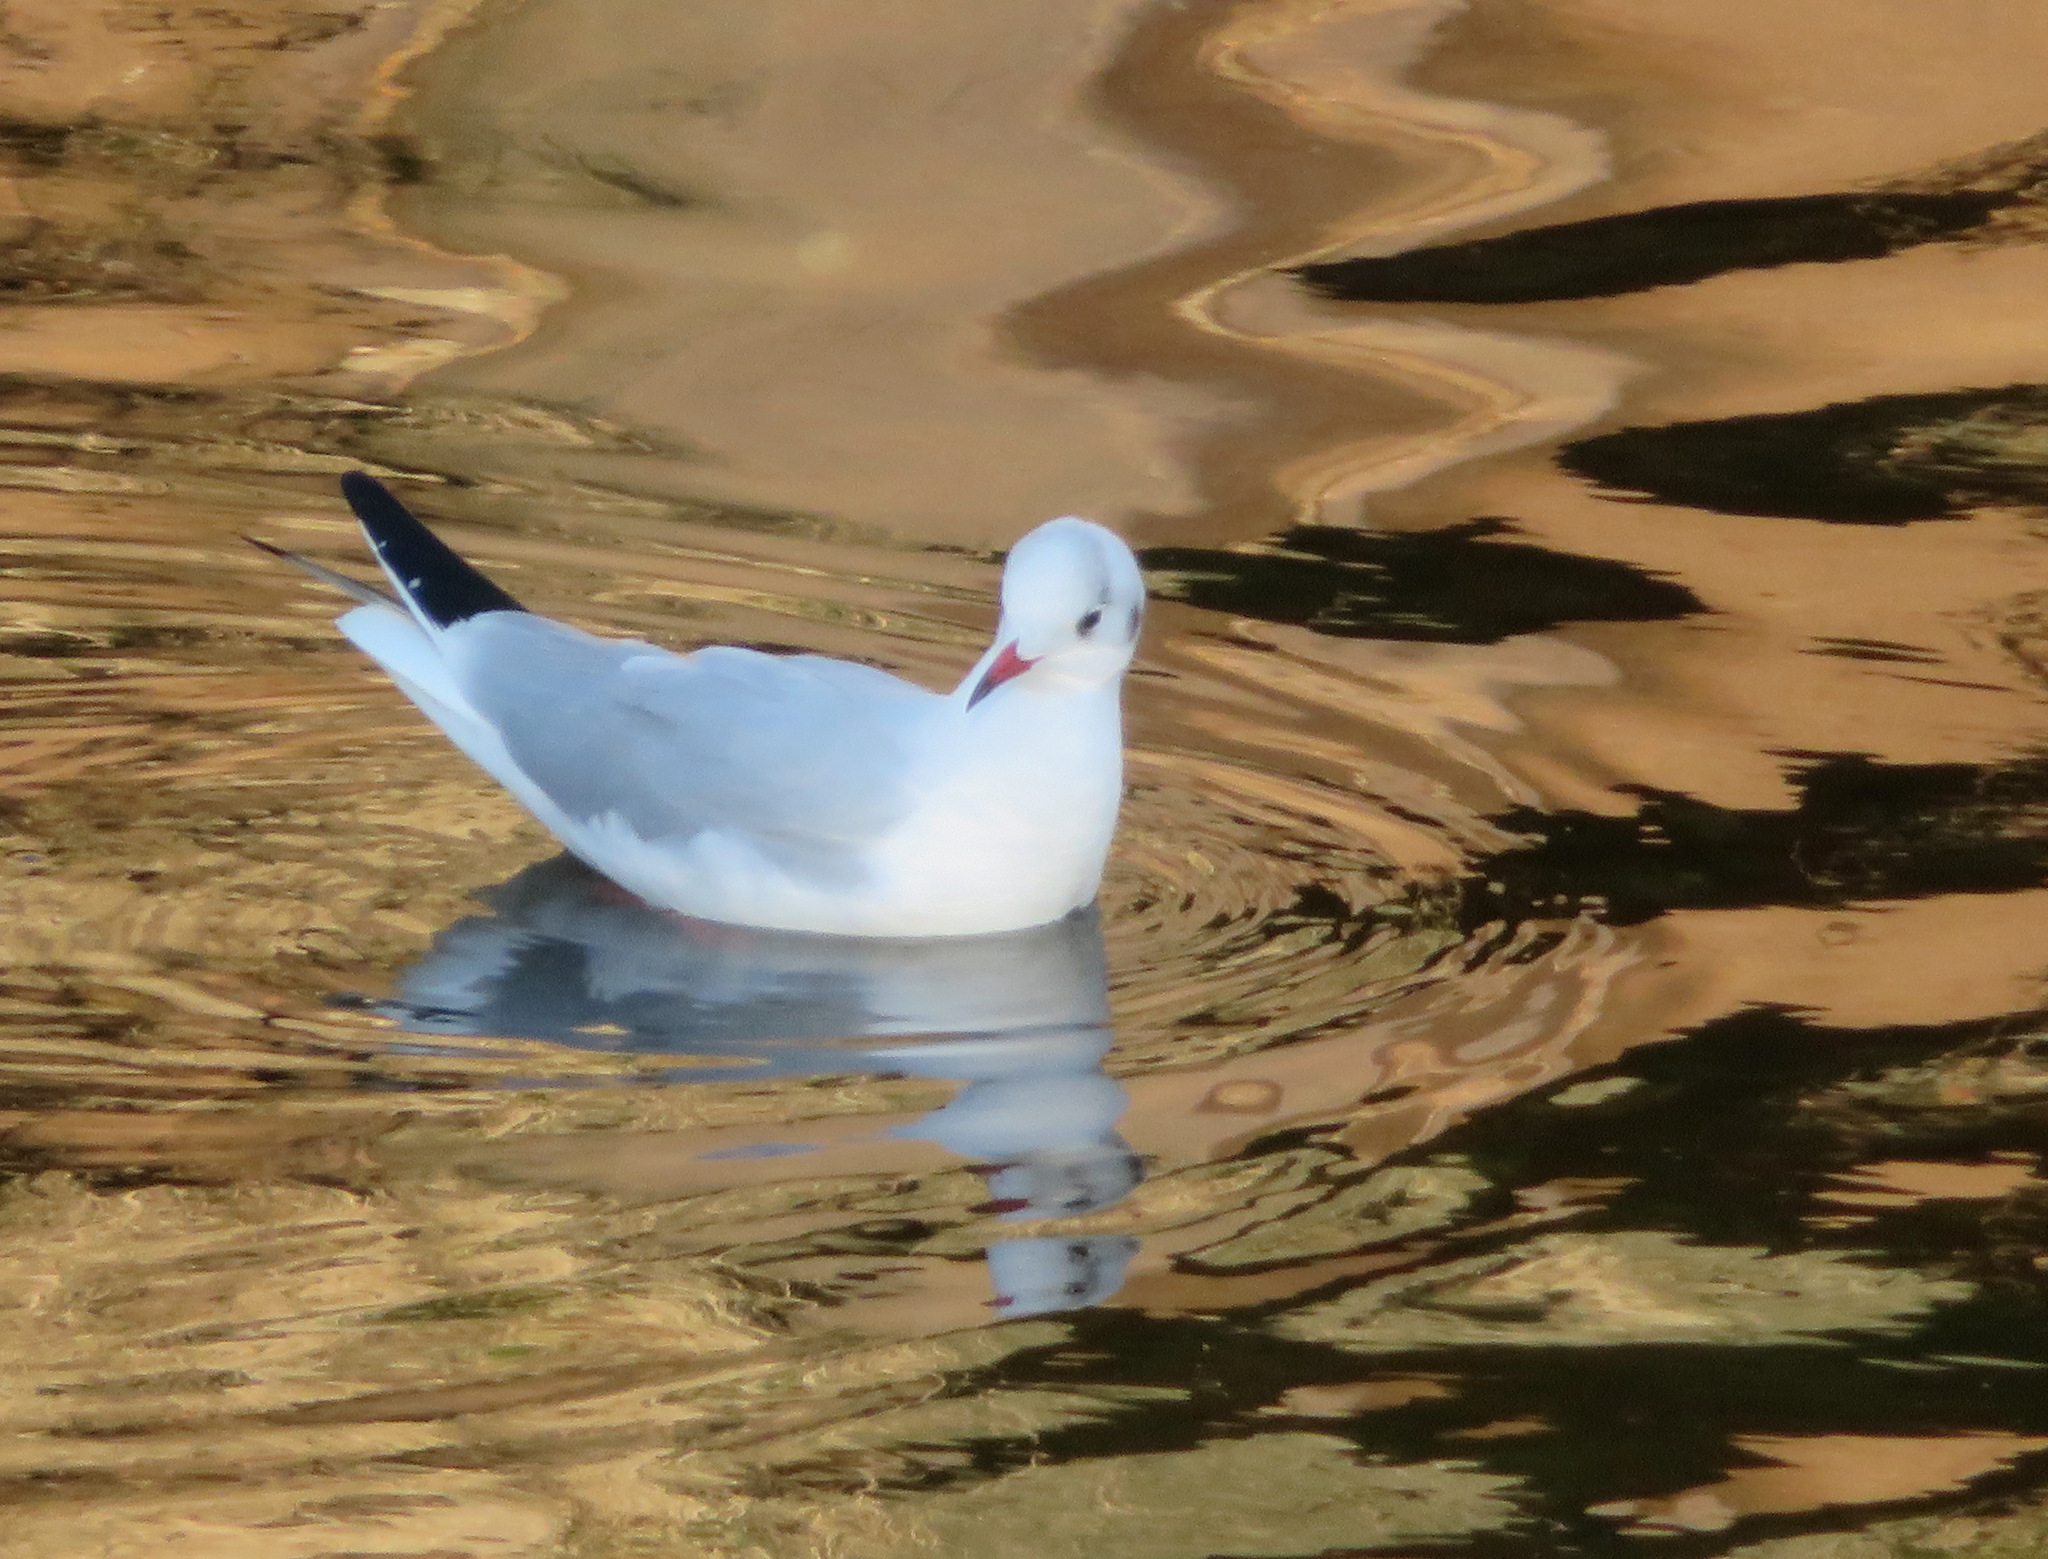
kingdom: Animalia
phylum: Chordata
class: Aves
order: Charadriiformes
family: Laridae
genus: Chroicocephalus
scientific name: Chroicocephalus ridibundus
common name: Black-headed gull
